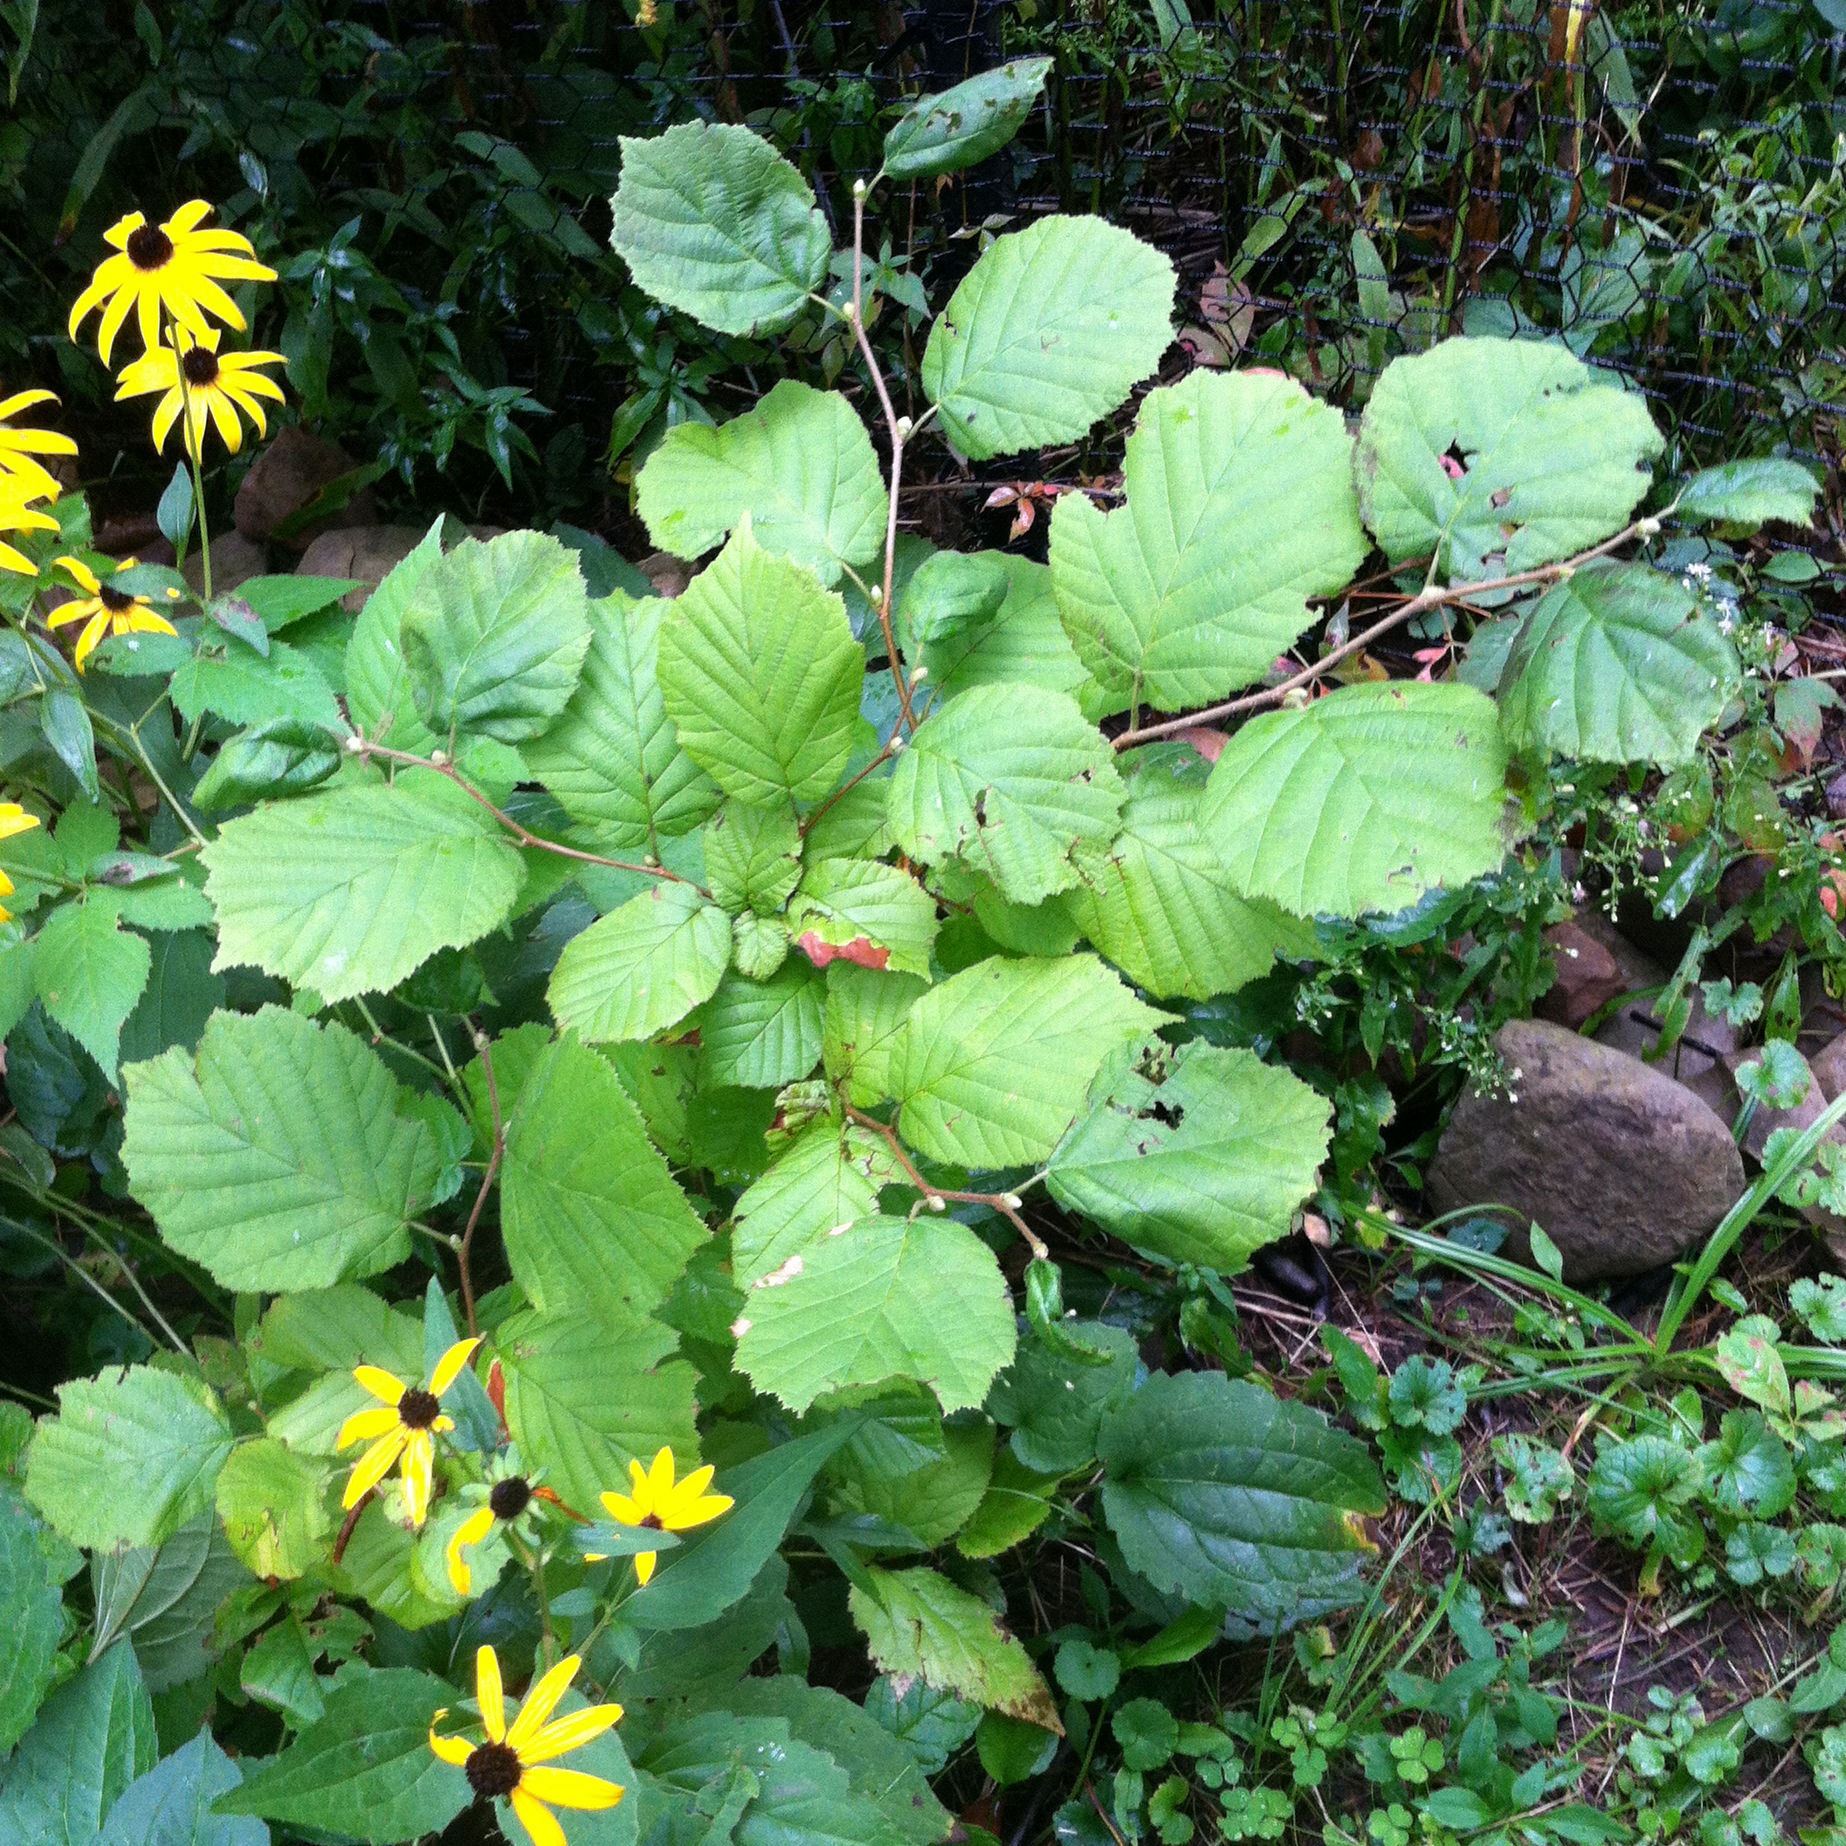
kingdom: Plantae
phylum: Tracheophyta
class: Magnoliopsida
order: Fagales
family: Betulaceae
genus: Corylus
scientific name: Corylus americana
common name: American hazel
